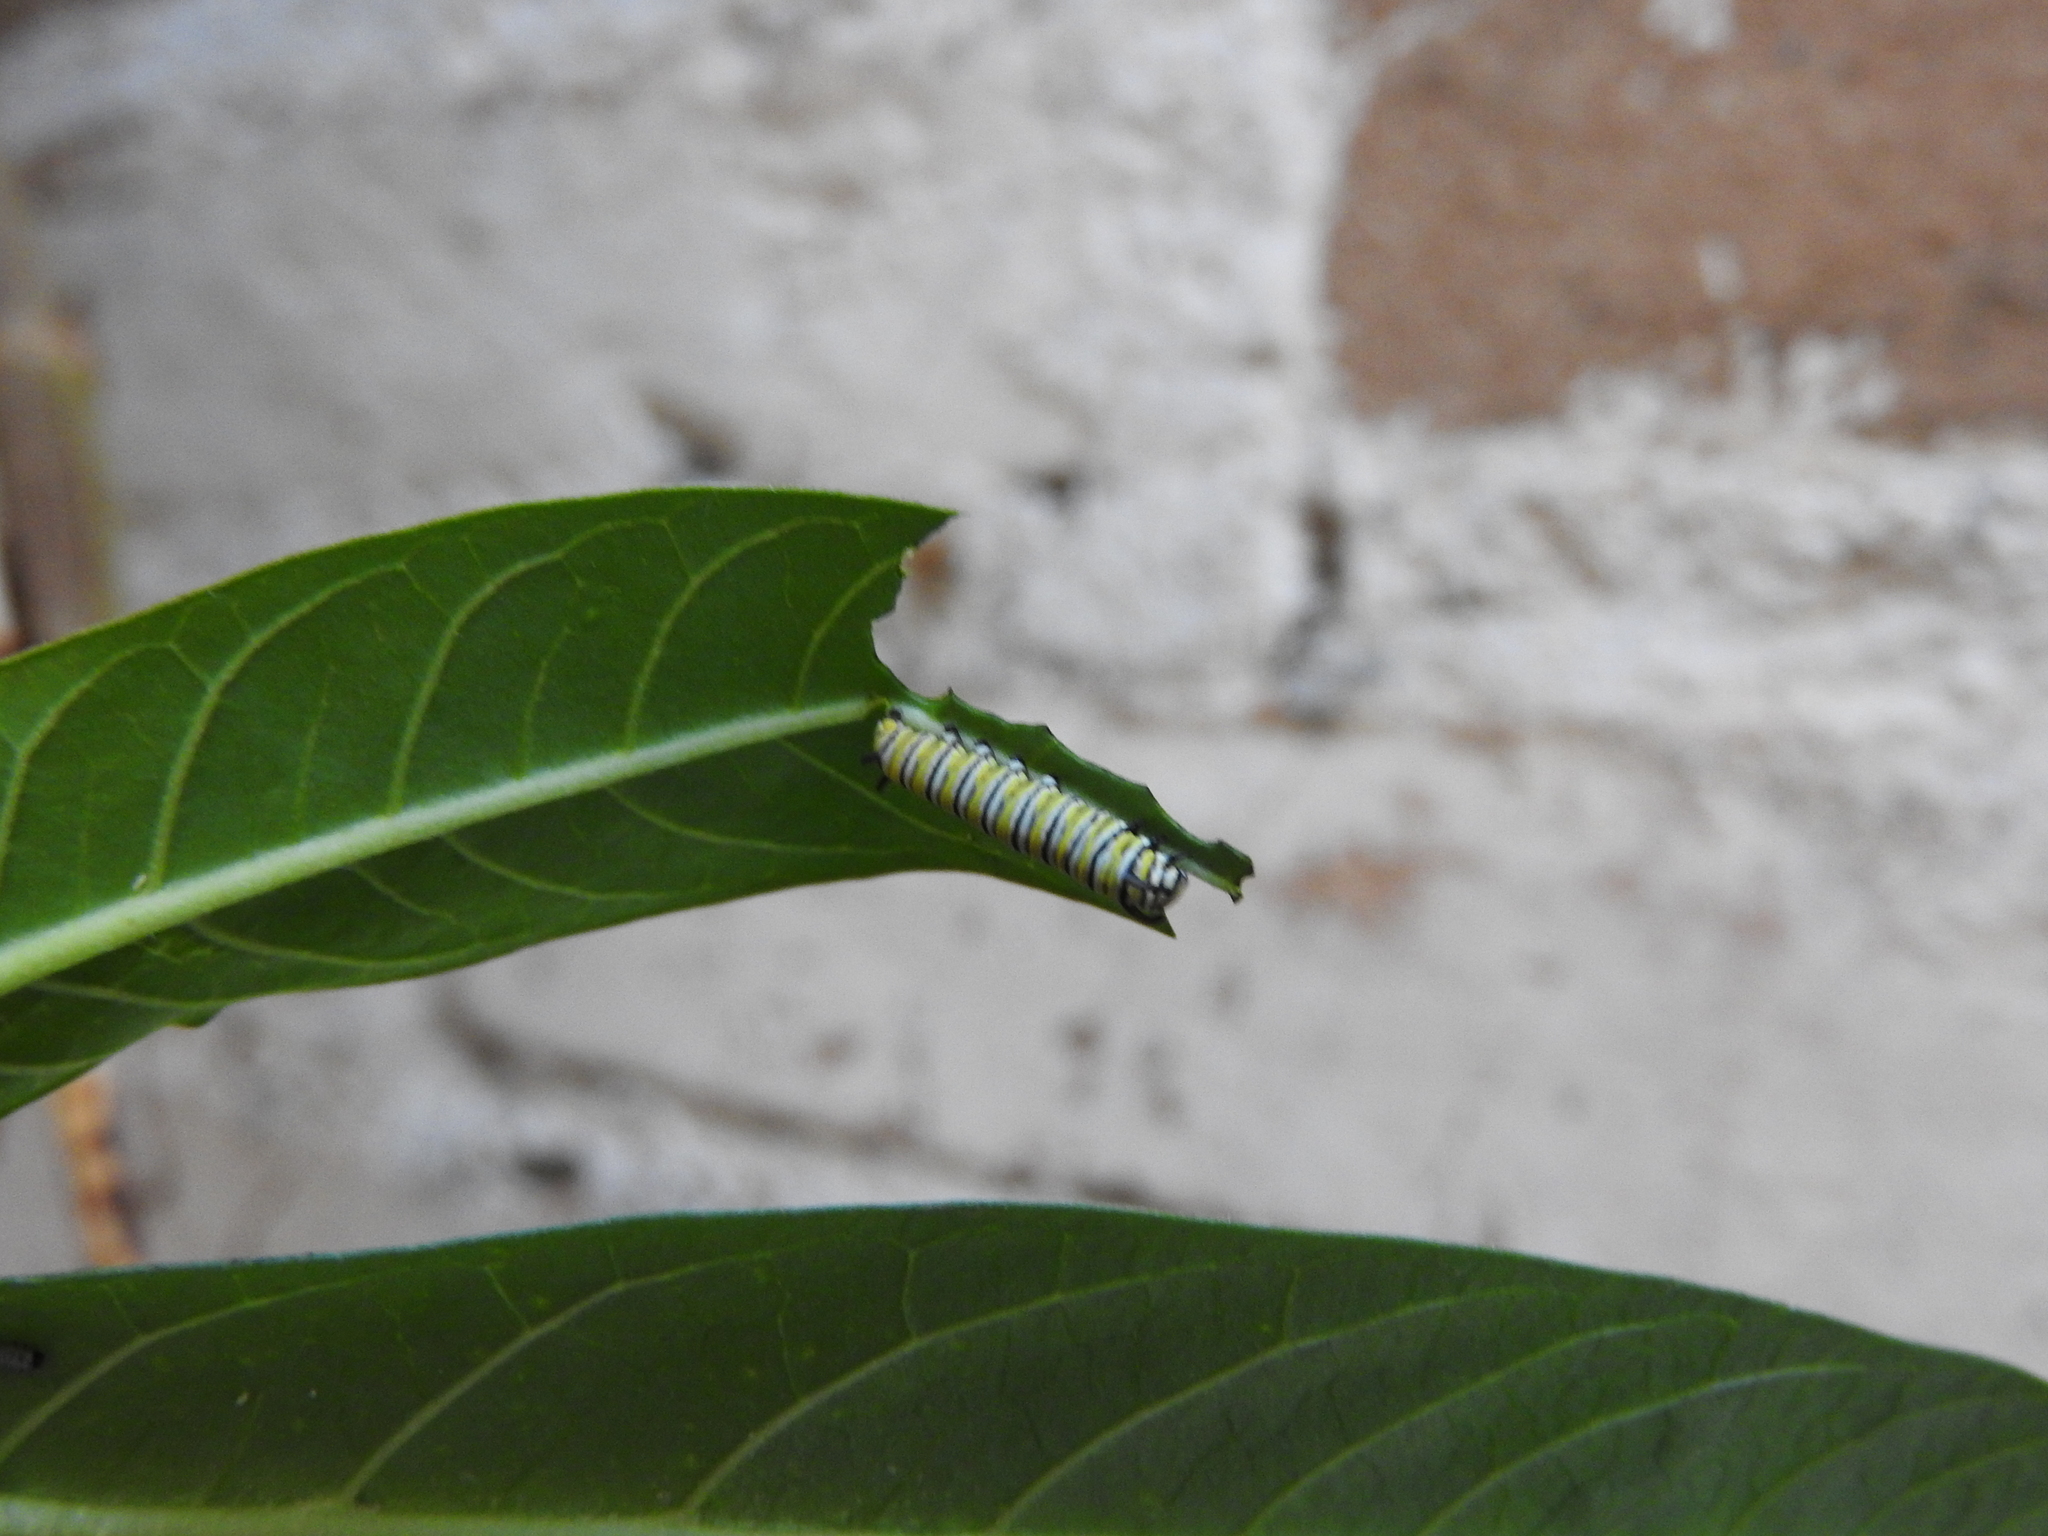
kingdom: Animalia
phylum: Arthropoda
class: Insecta
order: Lepidoptera
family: Nymphalidae
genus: Danaus
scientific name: Danaus plexippus
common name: Monarch
